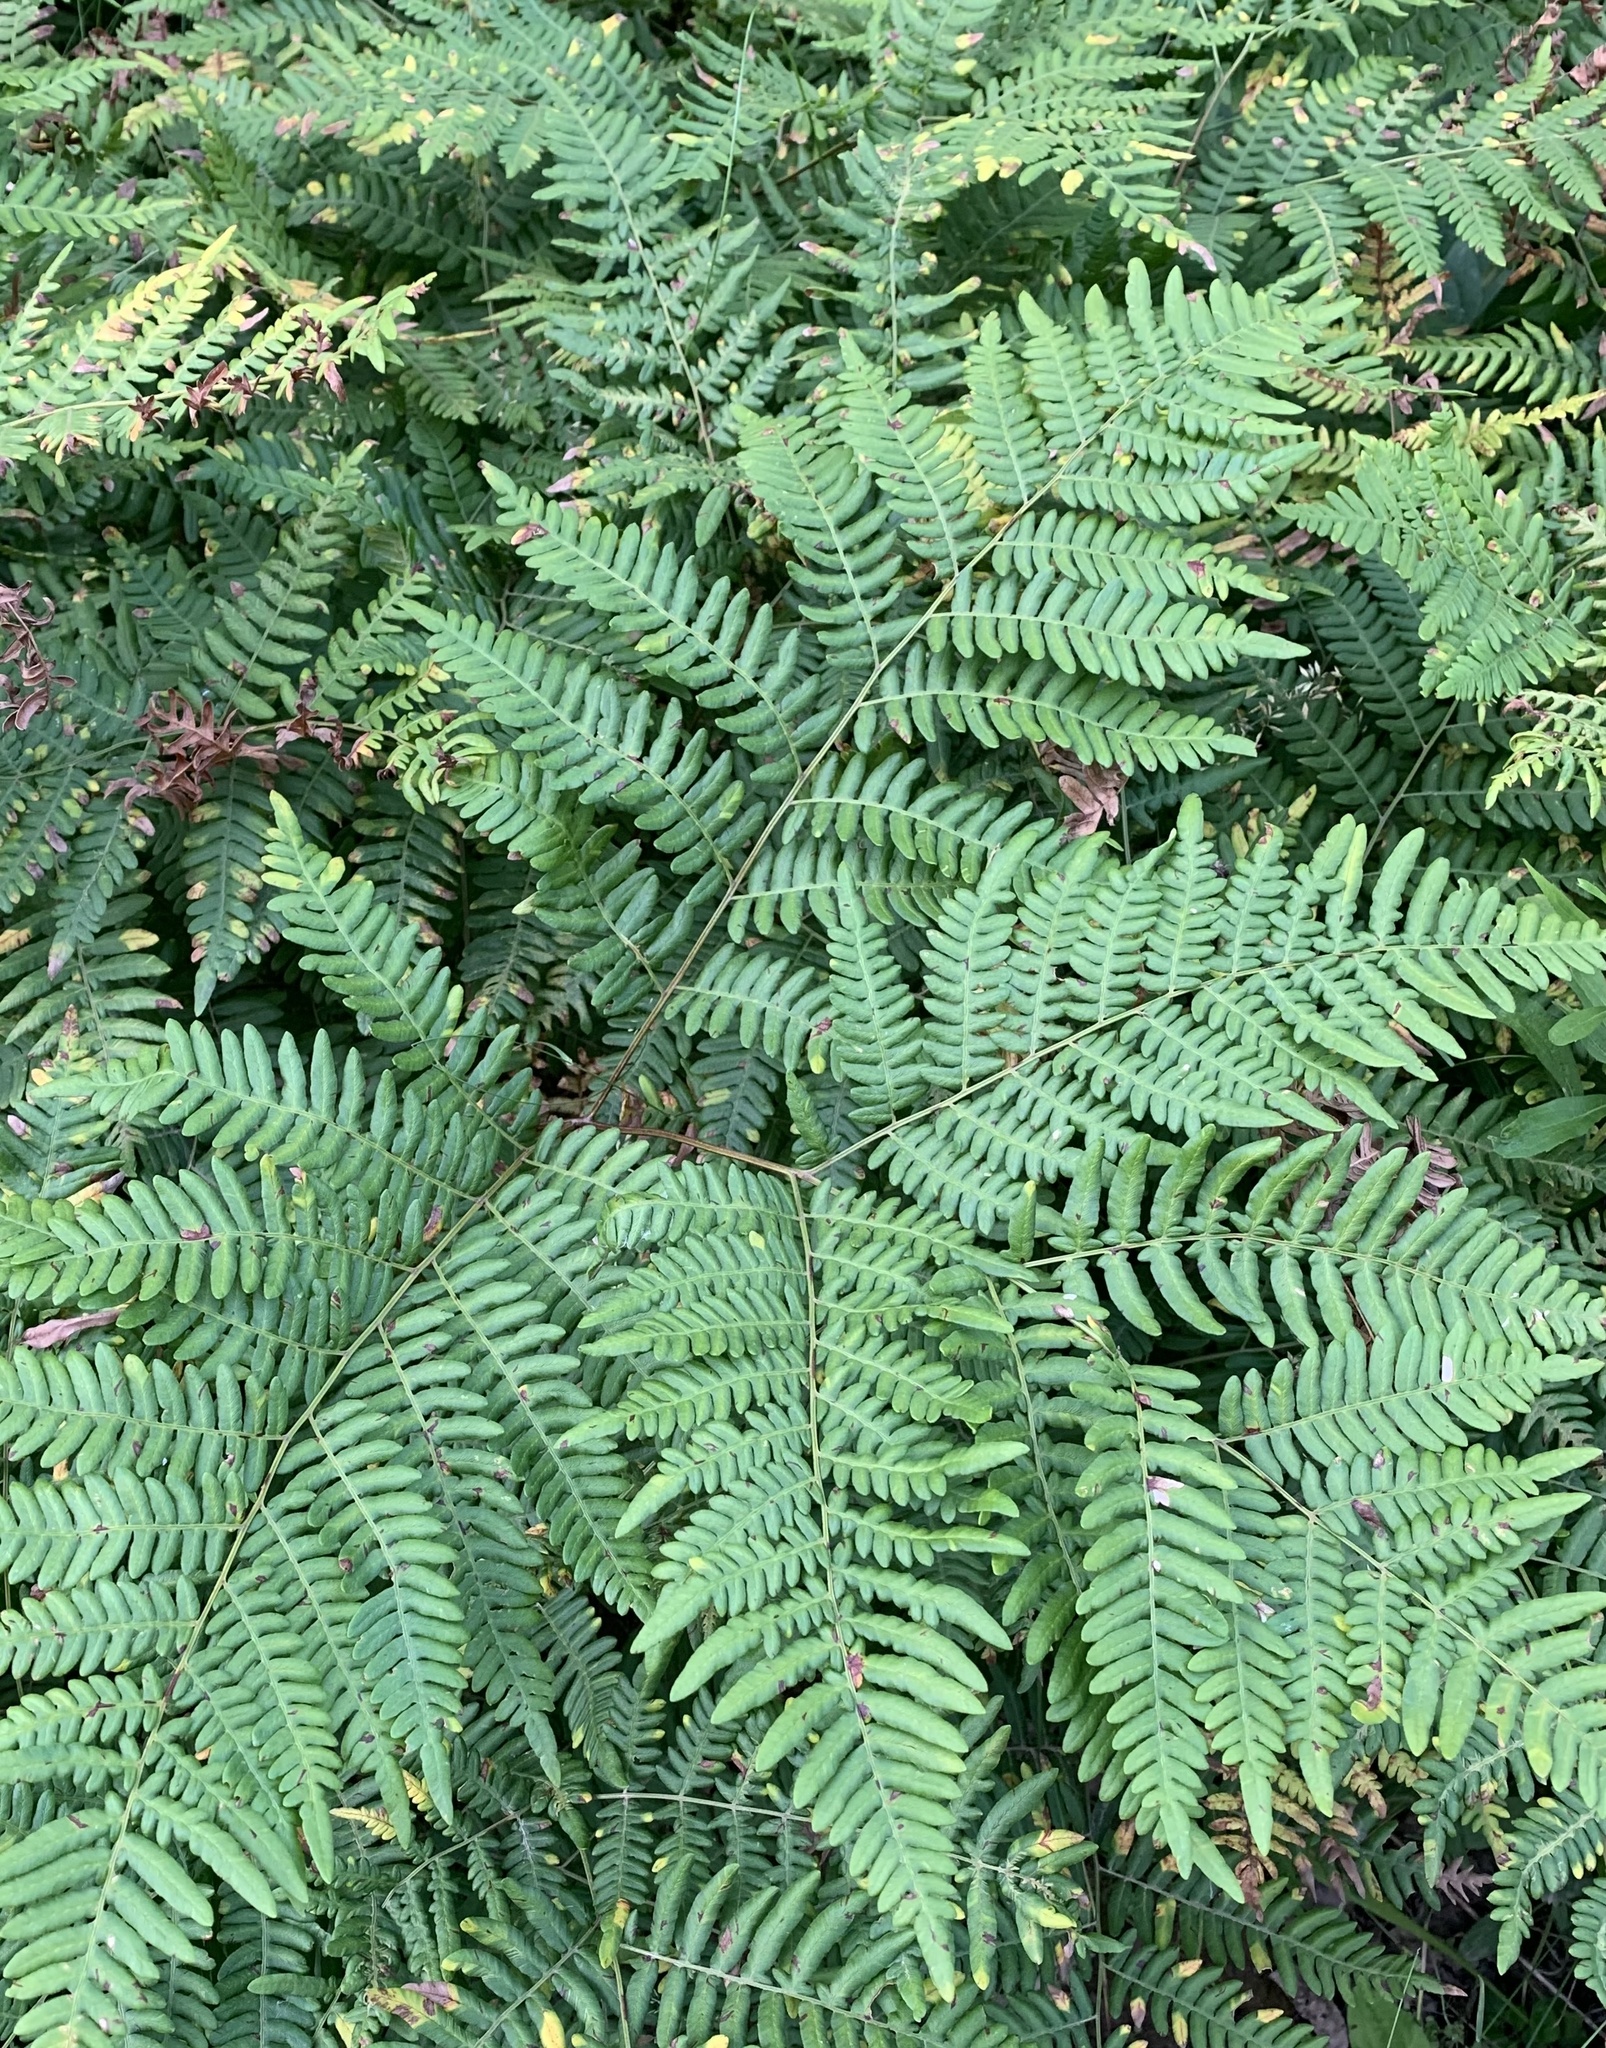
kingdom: Plantae
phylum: Tracheophyta
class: Polypodiopsida
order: Polypodiales
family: Dennstaedtiaceae
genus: Pteridium
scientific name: Pteridium aquilinum
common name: Bracken
